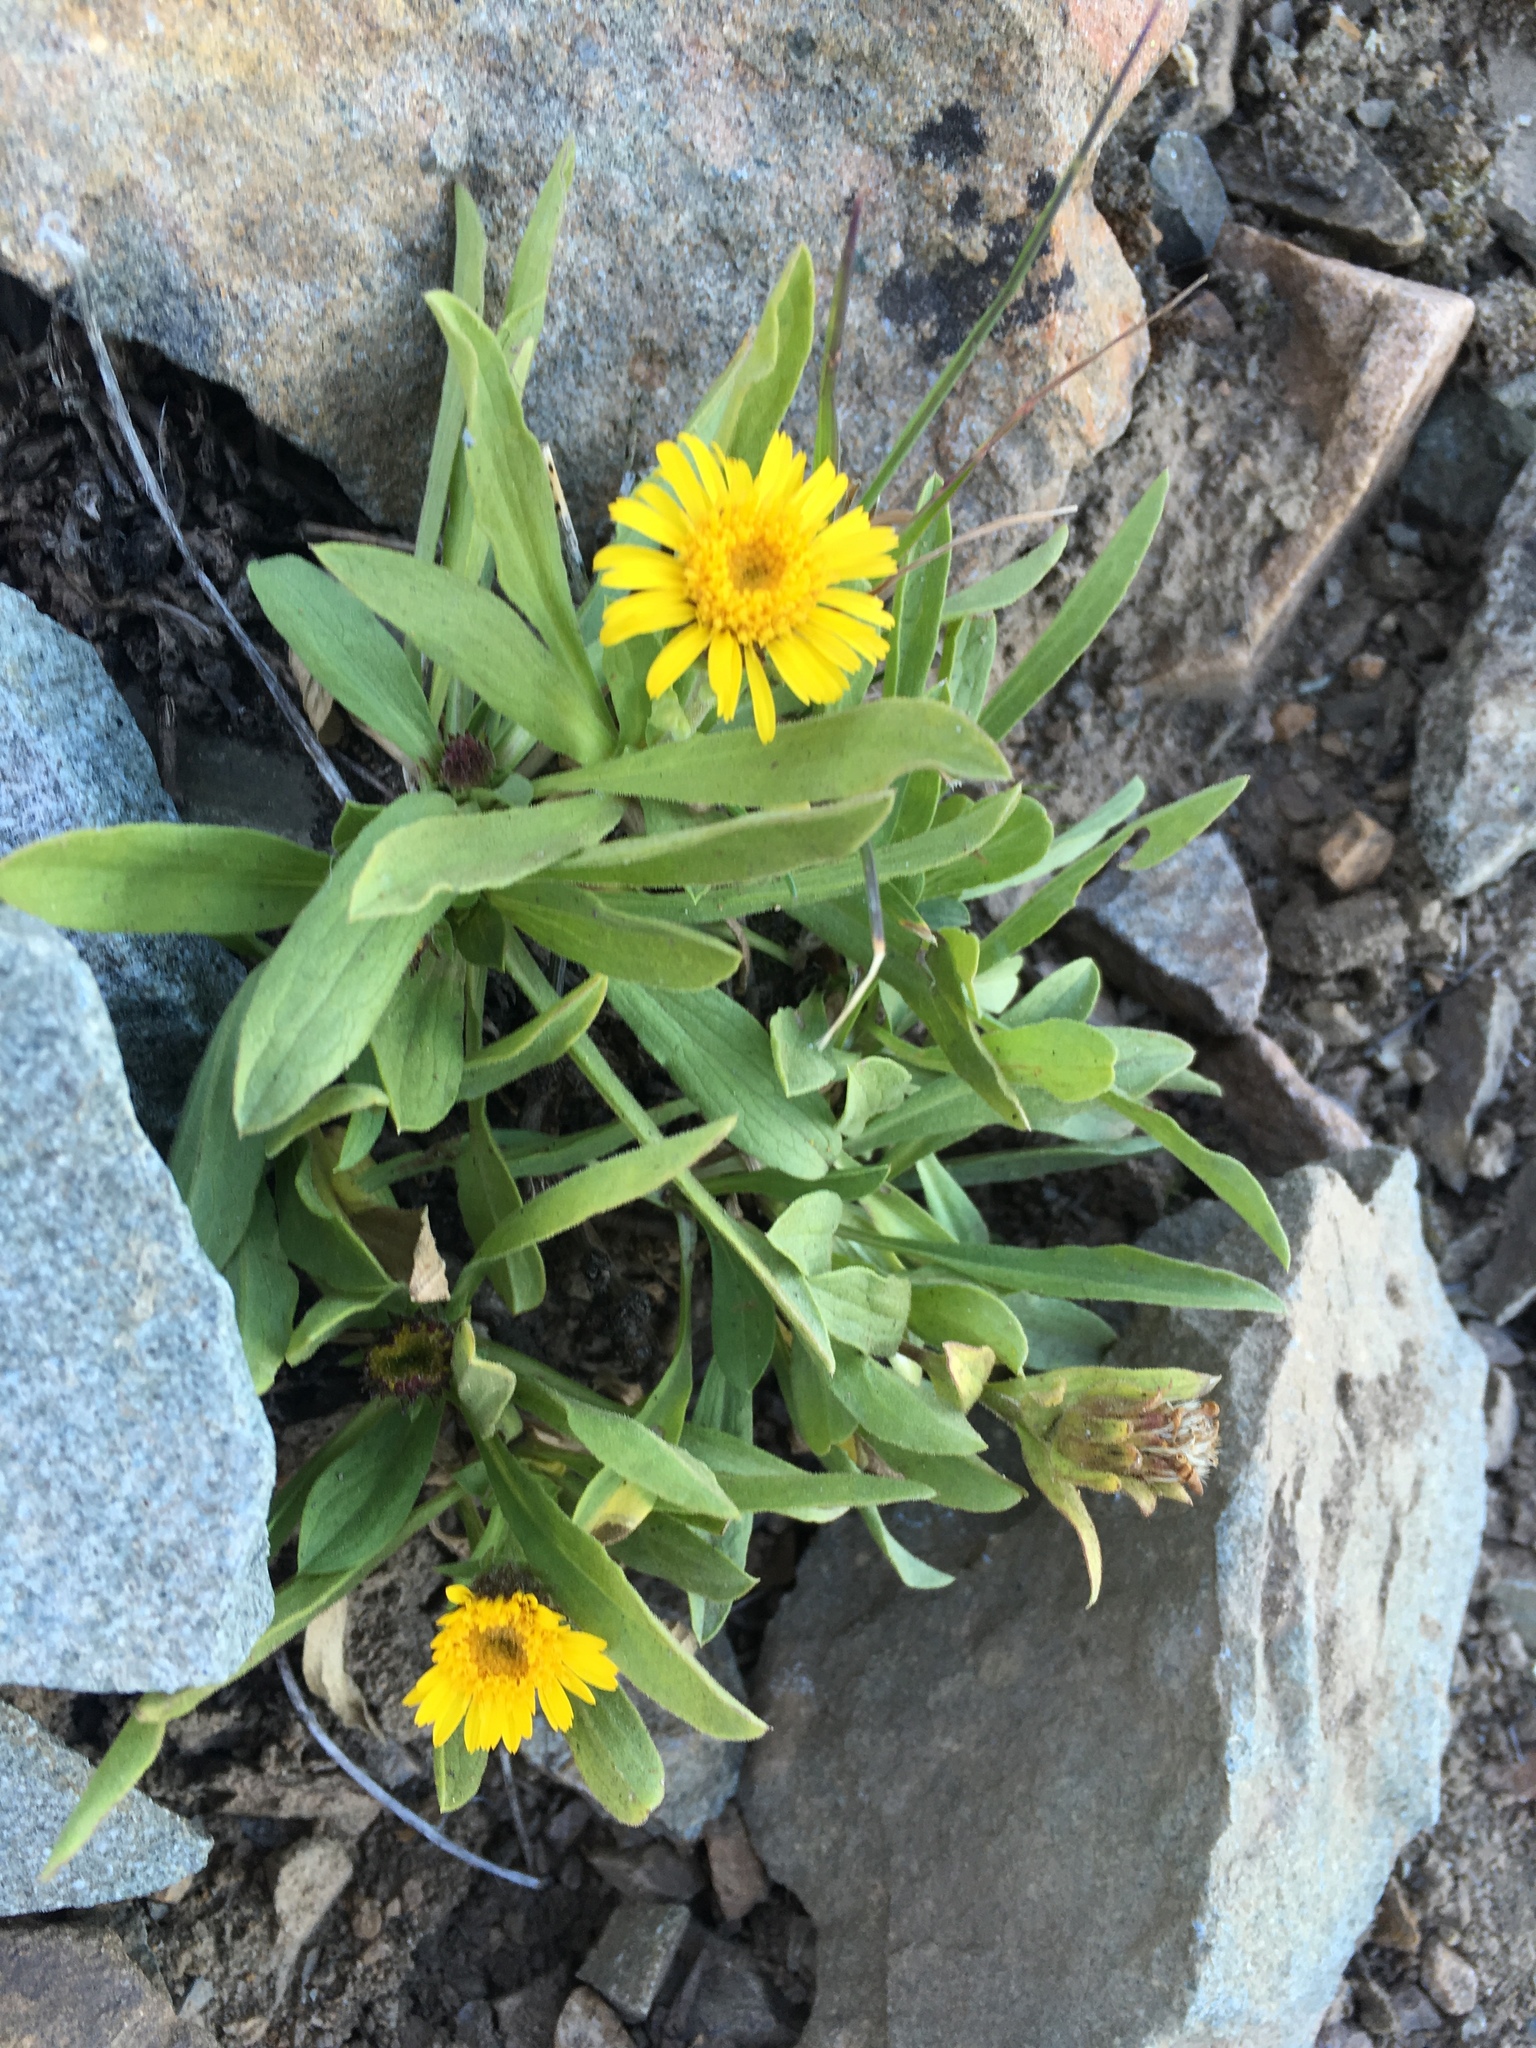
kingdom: Plantae
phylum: Tracheophyta
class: Magnoliopsida
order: Asterales
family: Asteraceae
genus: Tonestus
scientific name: Tonestus lyallii
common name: Lyall's goldenweed
